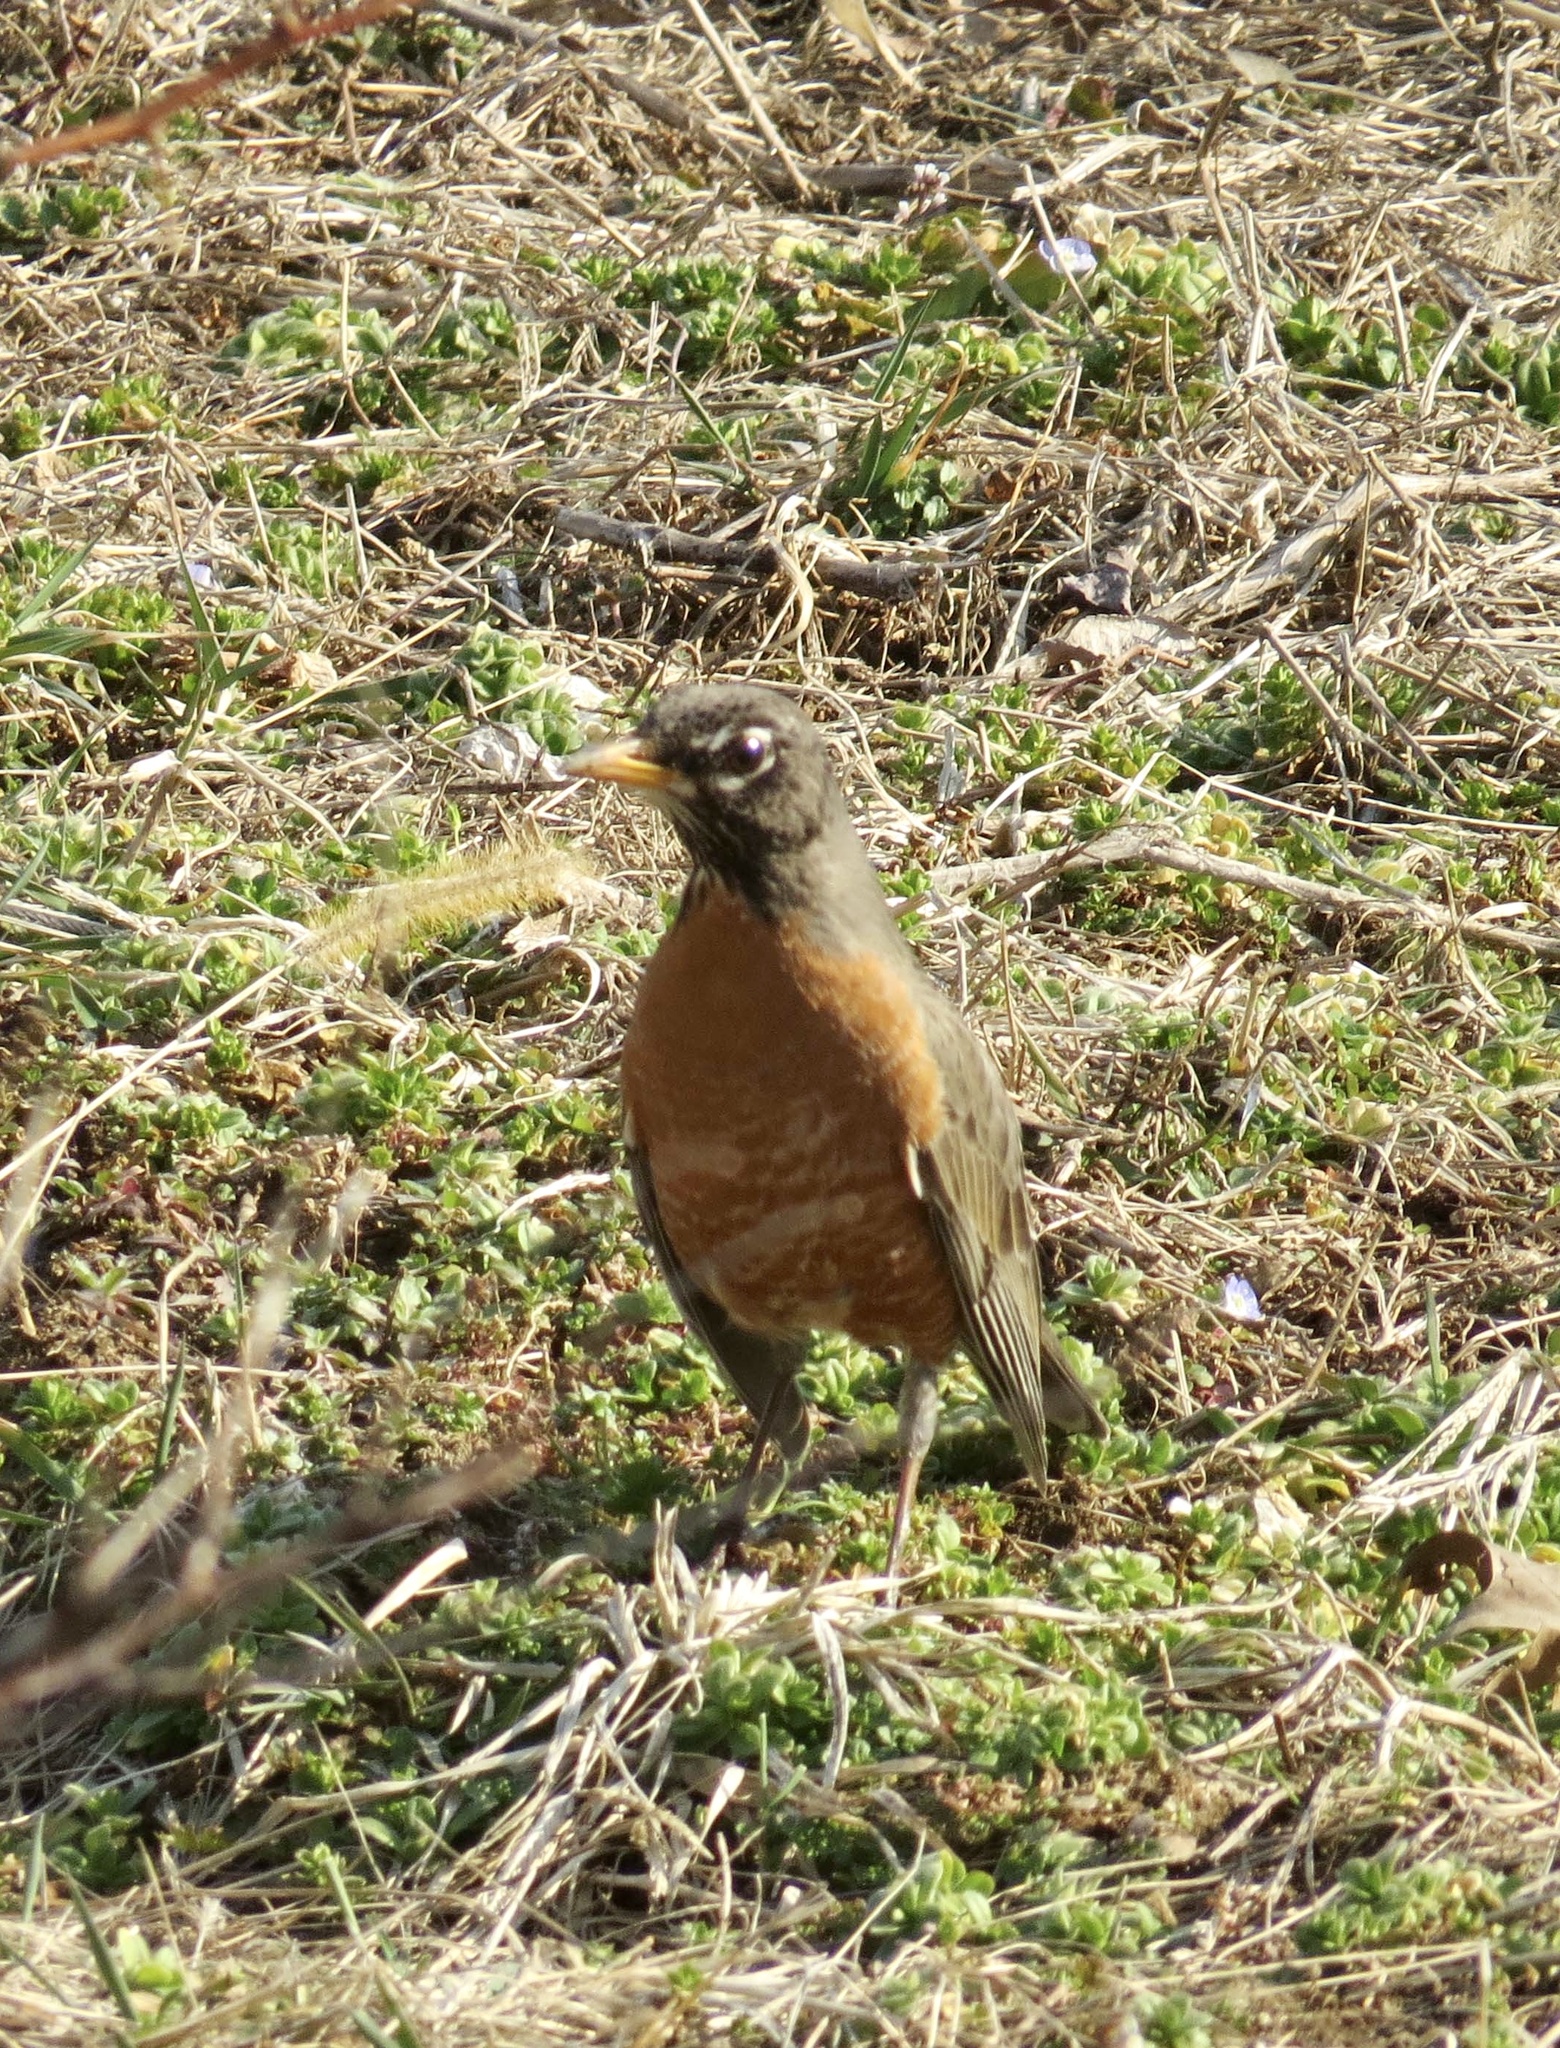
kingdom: Animalia
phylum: Chordata
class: Aves
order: Passeriformes
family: Turdidae
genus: Turdus
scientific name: Turdus migratorius
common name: American robin
